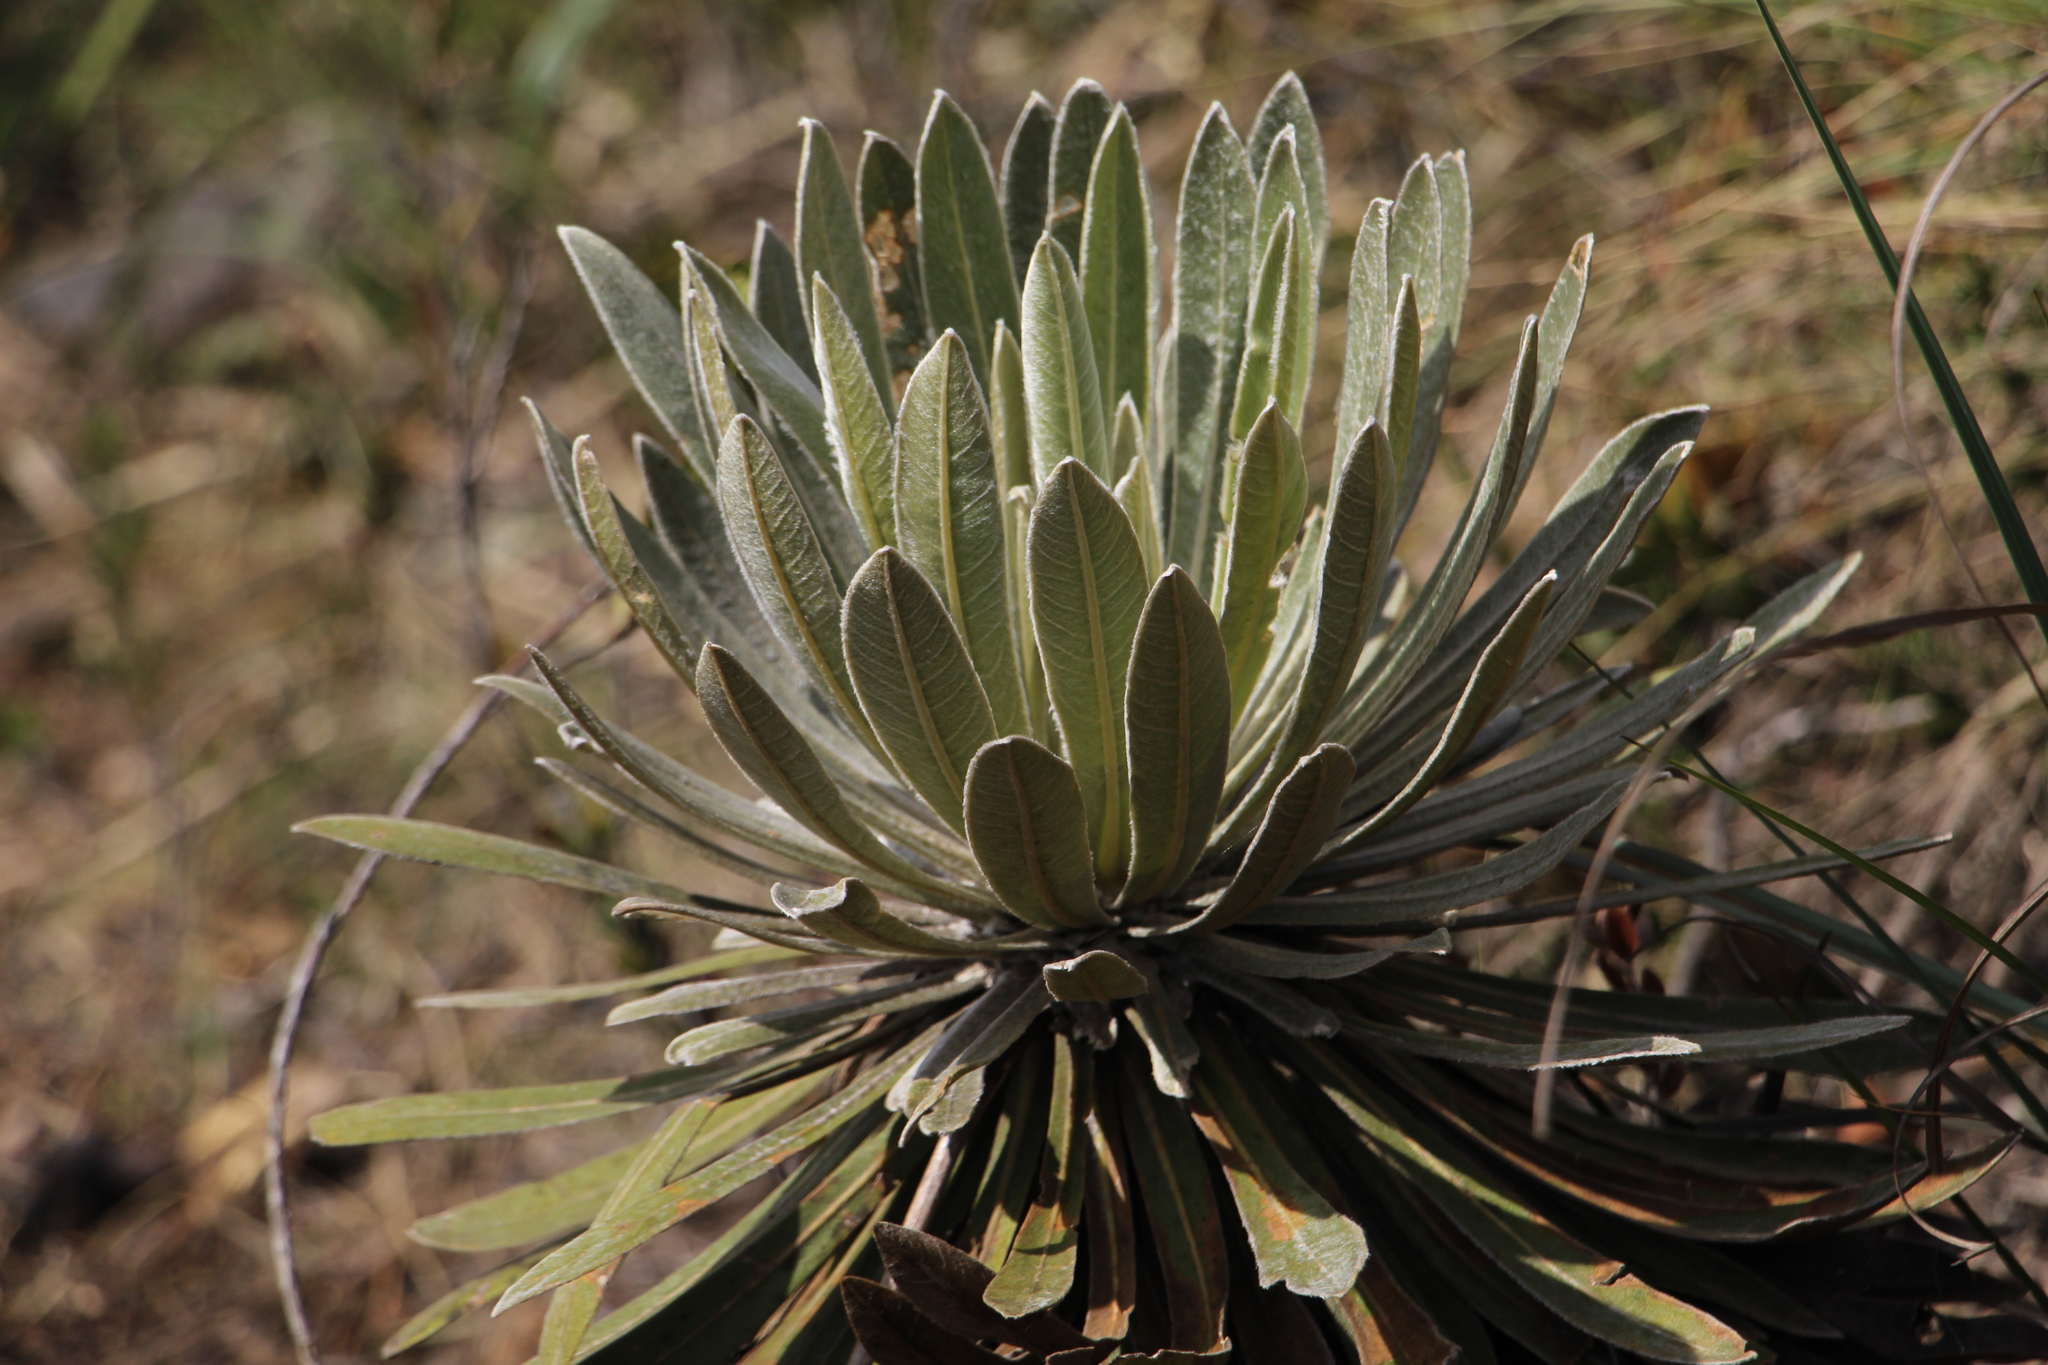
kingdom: Plantae
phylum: Tracheophyta
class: Magnoliopsida
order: Asterales
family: Asteraceae
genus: Espeletia
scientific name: Espeletia corymbosa
